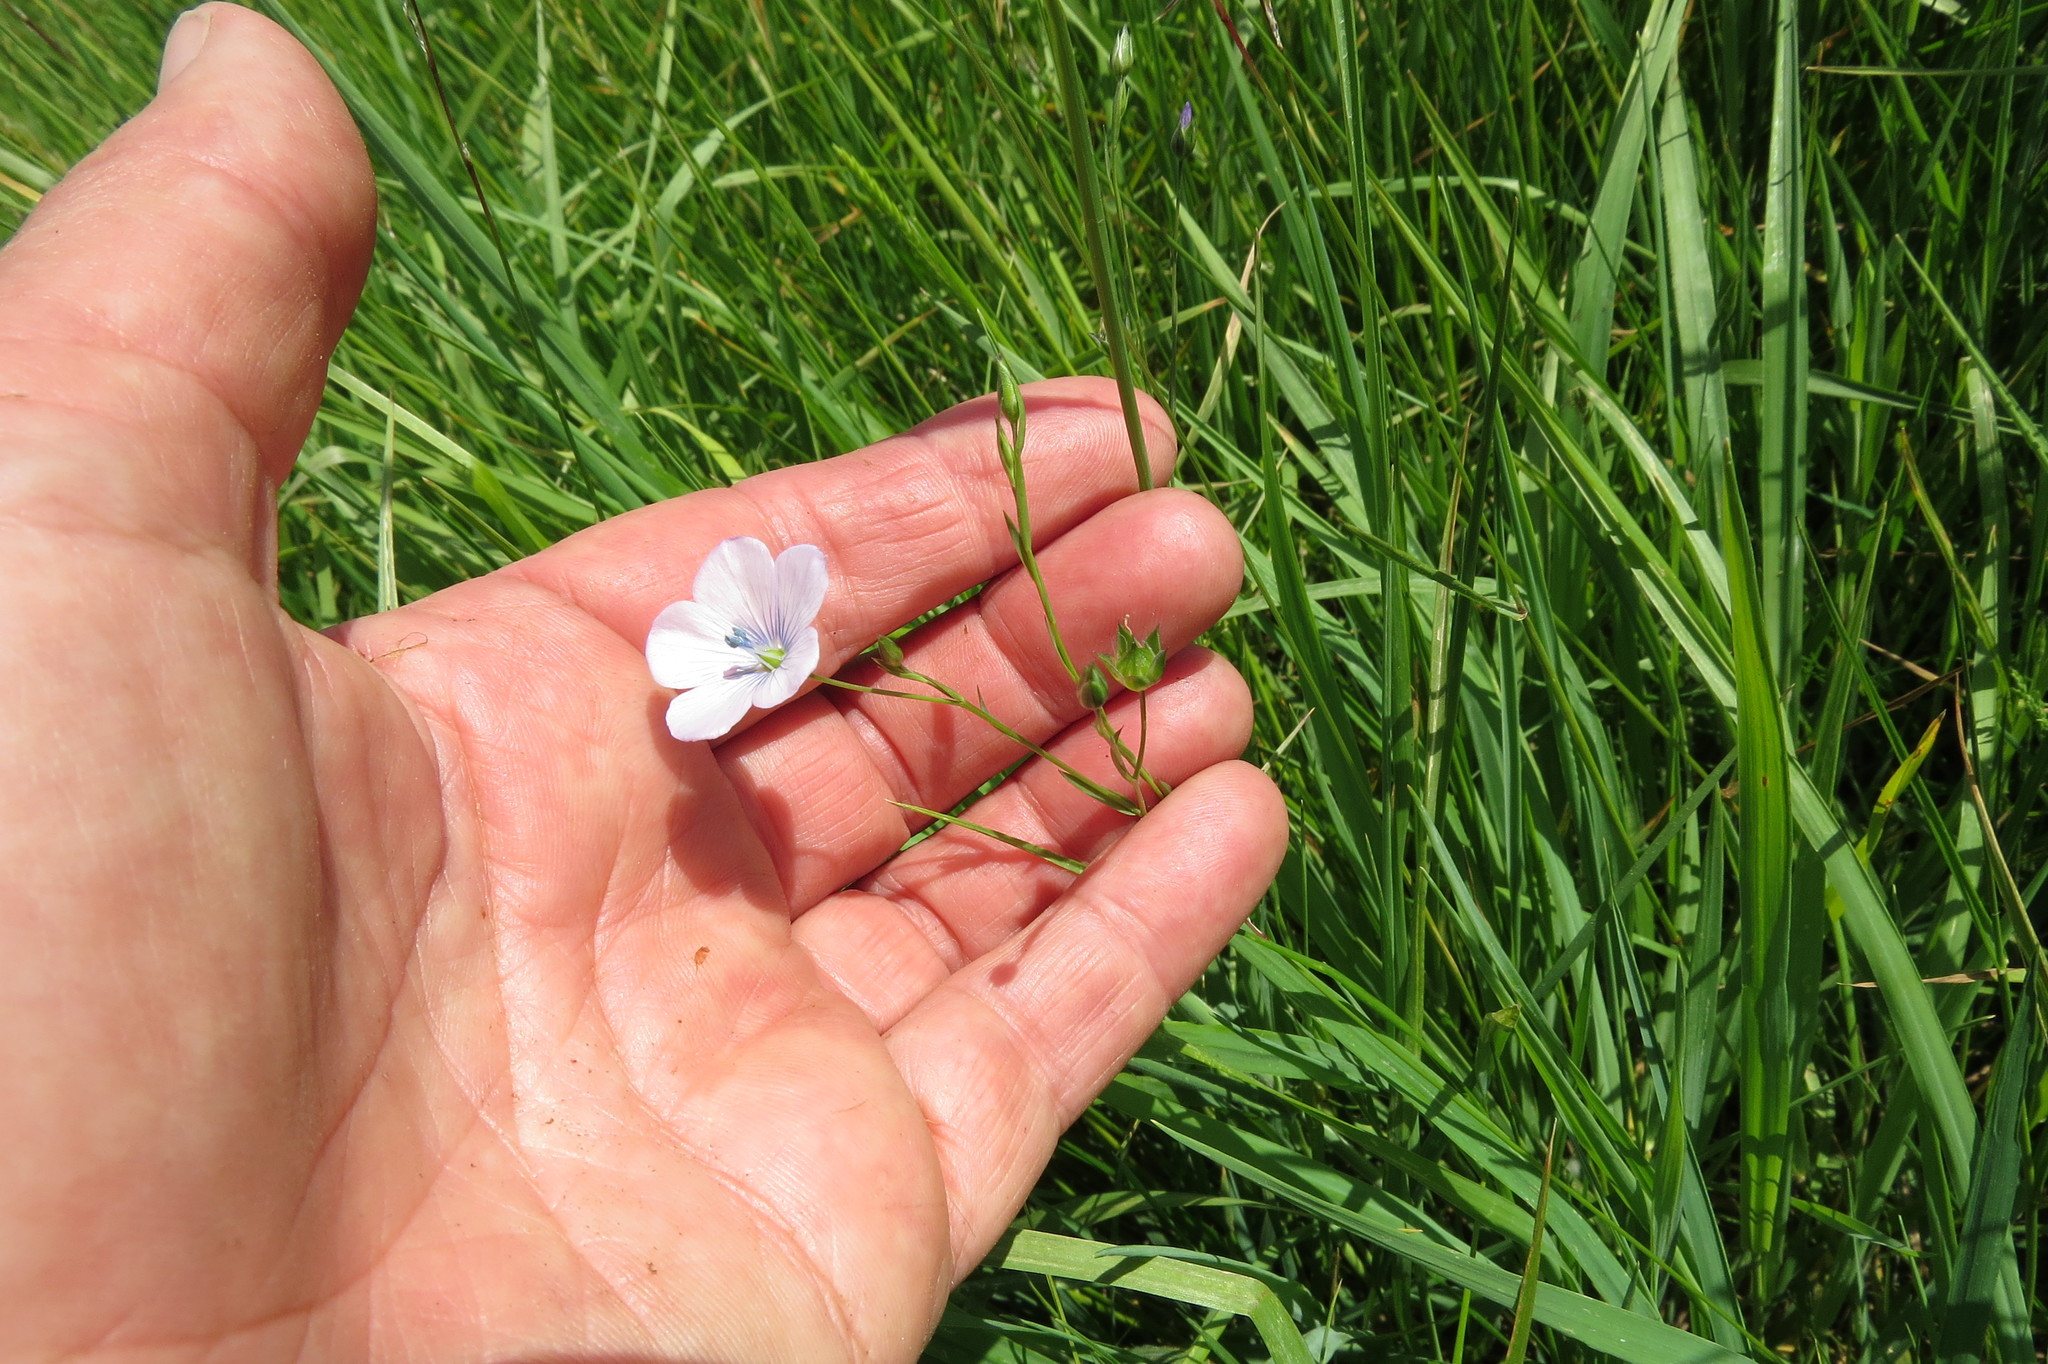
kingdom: Plantae
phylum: Tracheophyta
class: Magnoliopsida
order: Malpighiales
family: Linaceae
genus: Linum
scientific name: Linum bienne
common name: Pale flax
